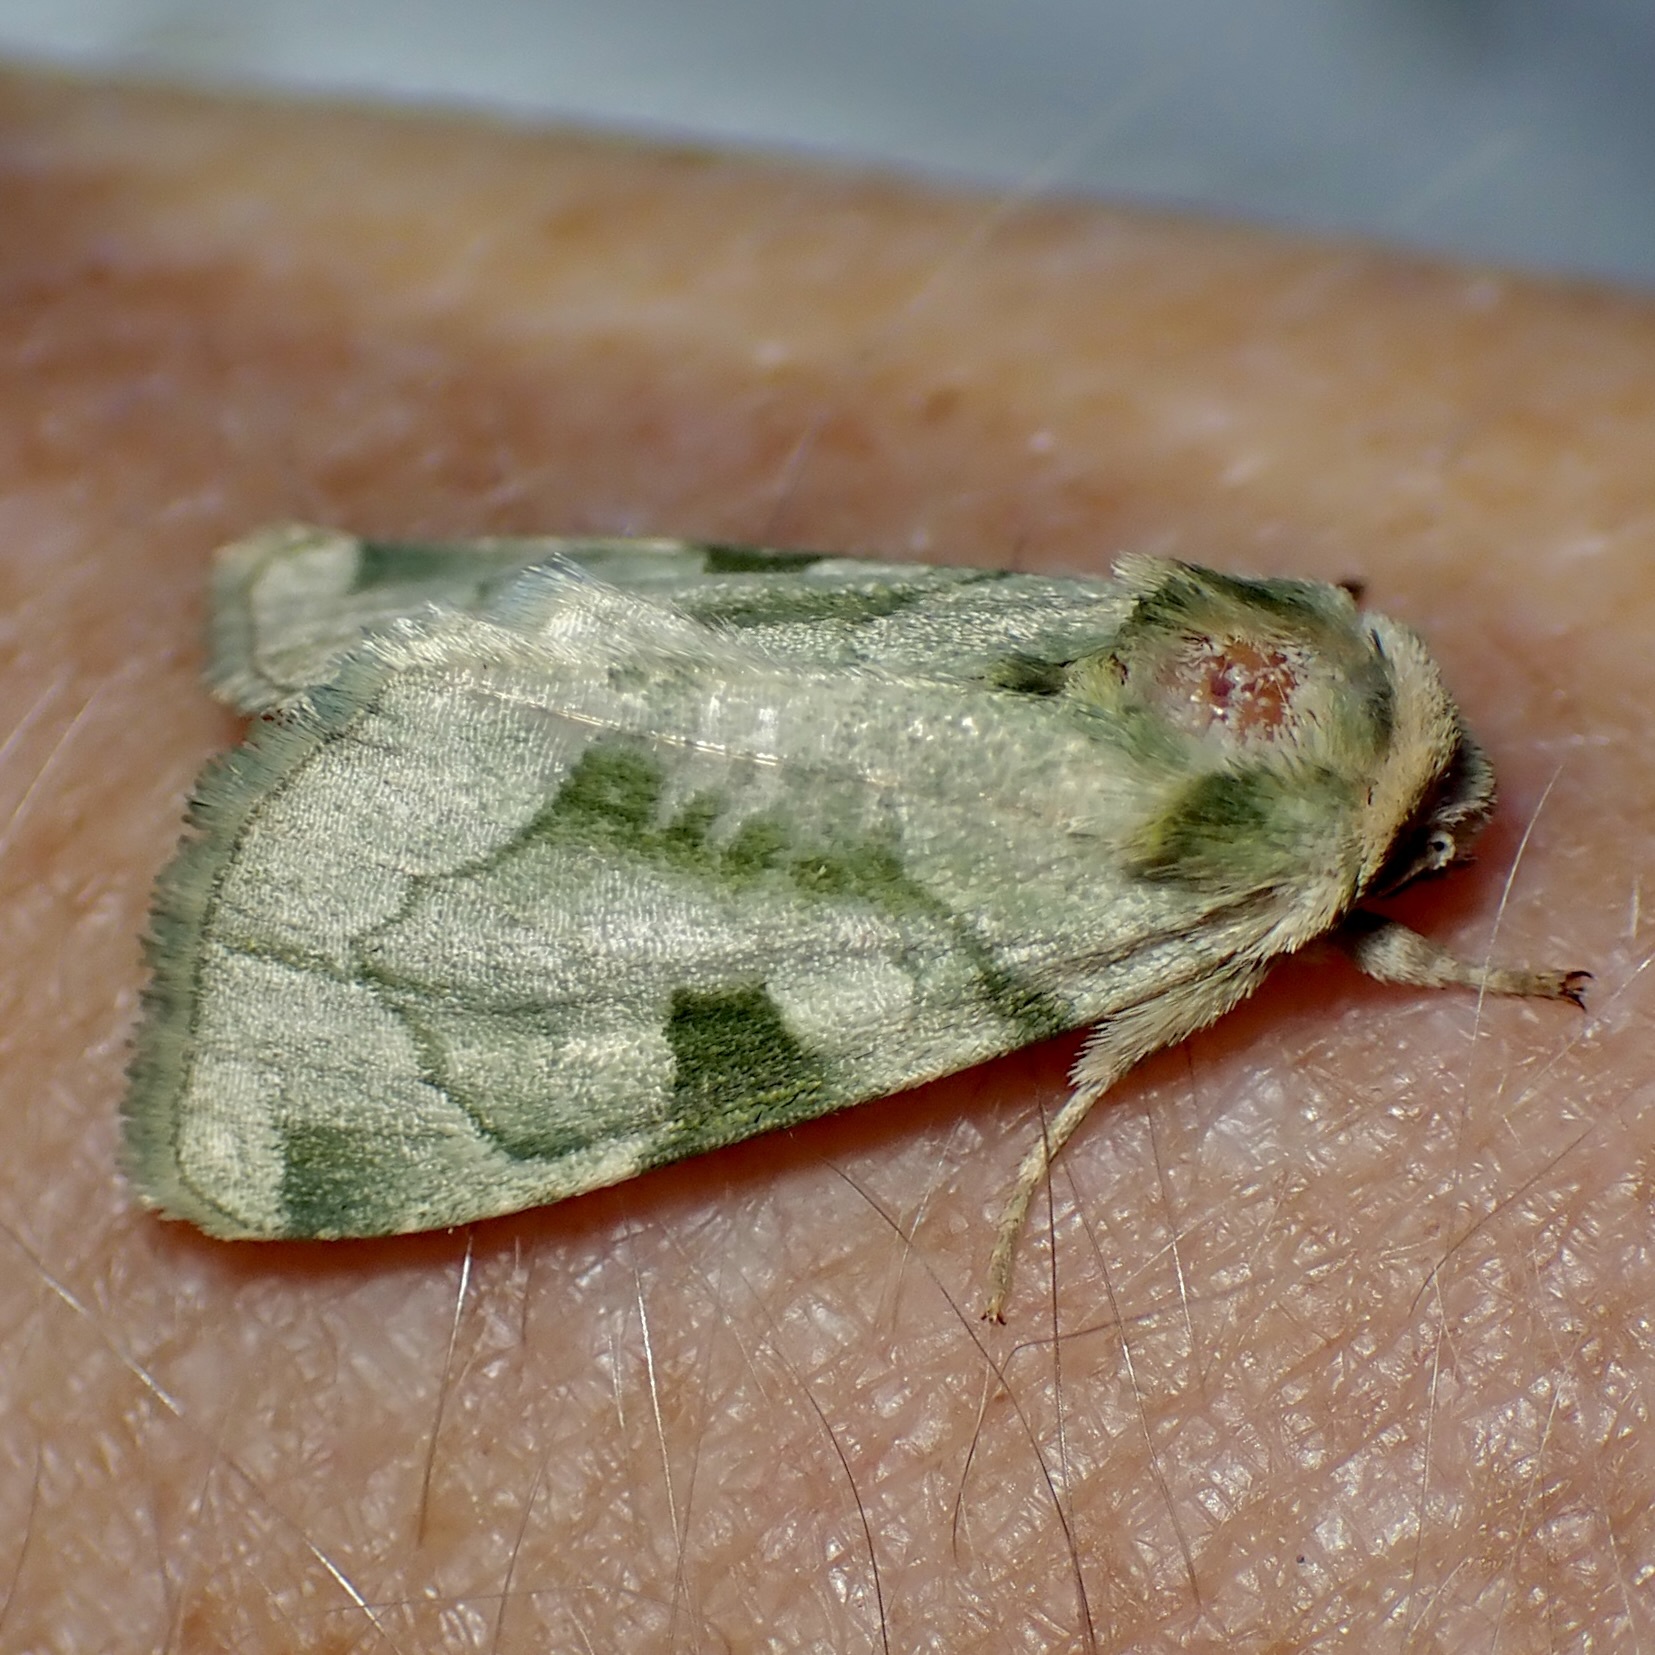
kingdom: Animalia
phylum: Arthropoda
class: Insecta
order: Lepidoptera
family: Noctuidae
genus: Oslaria
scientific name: Oslaria viridifera
